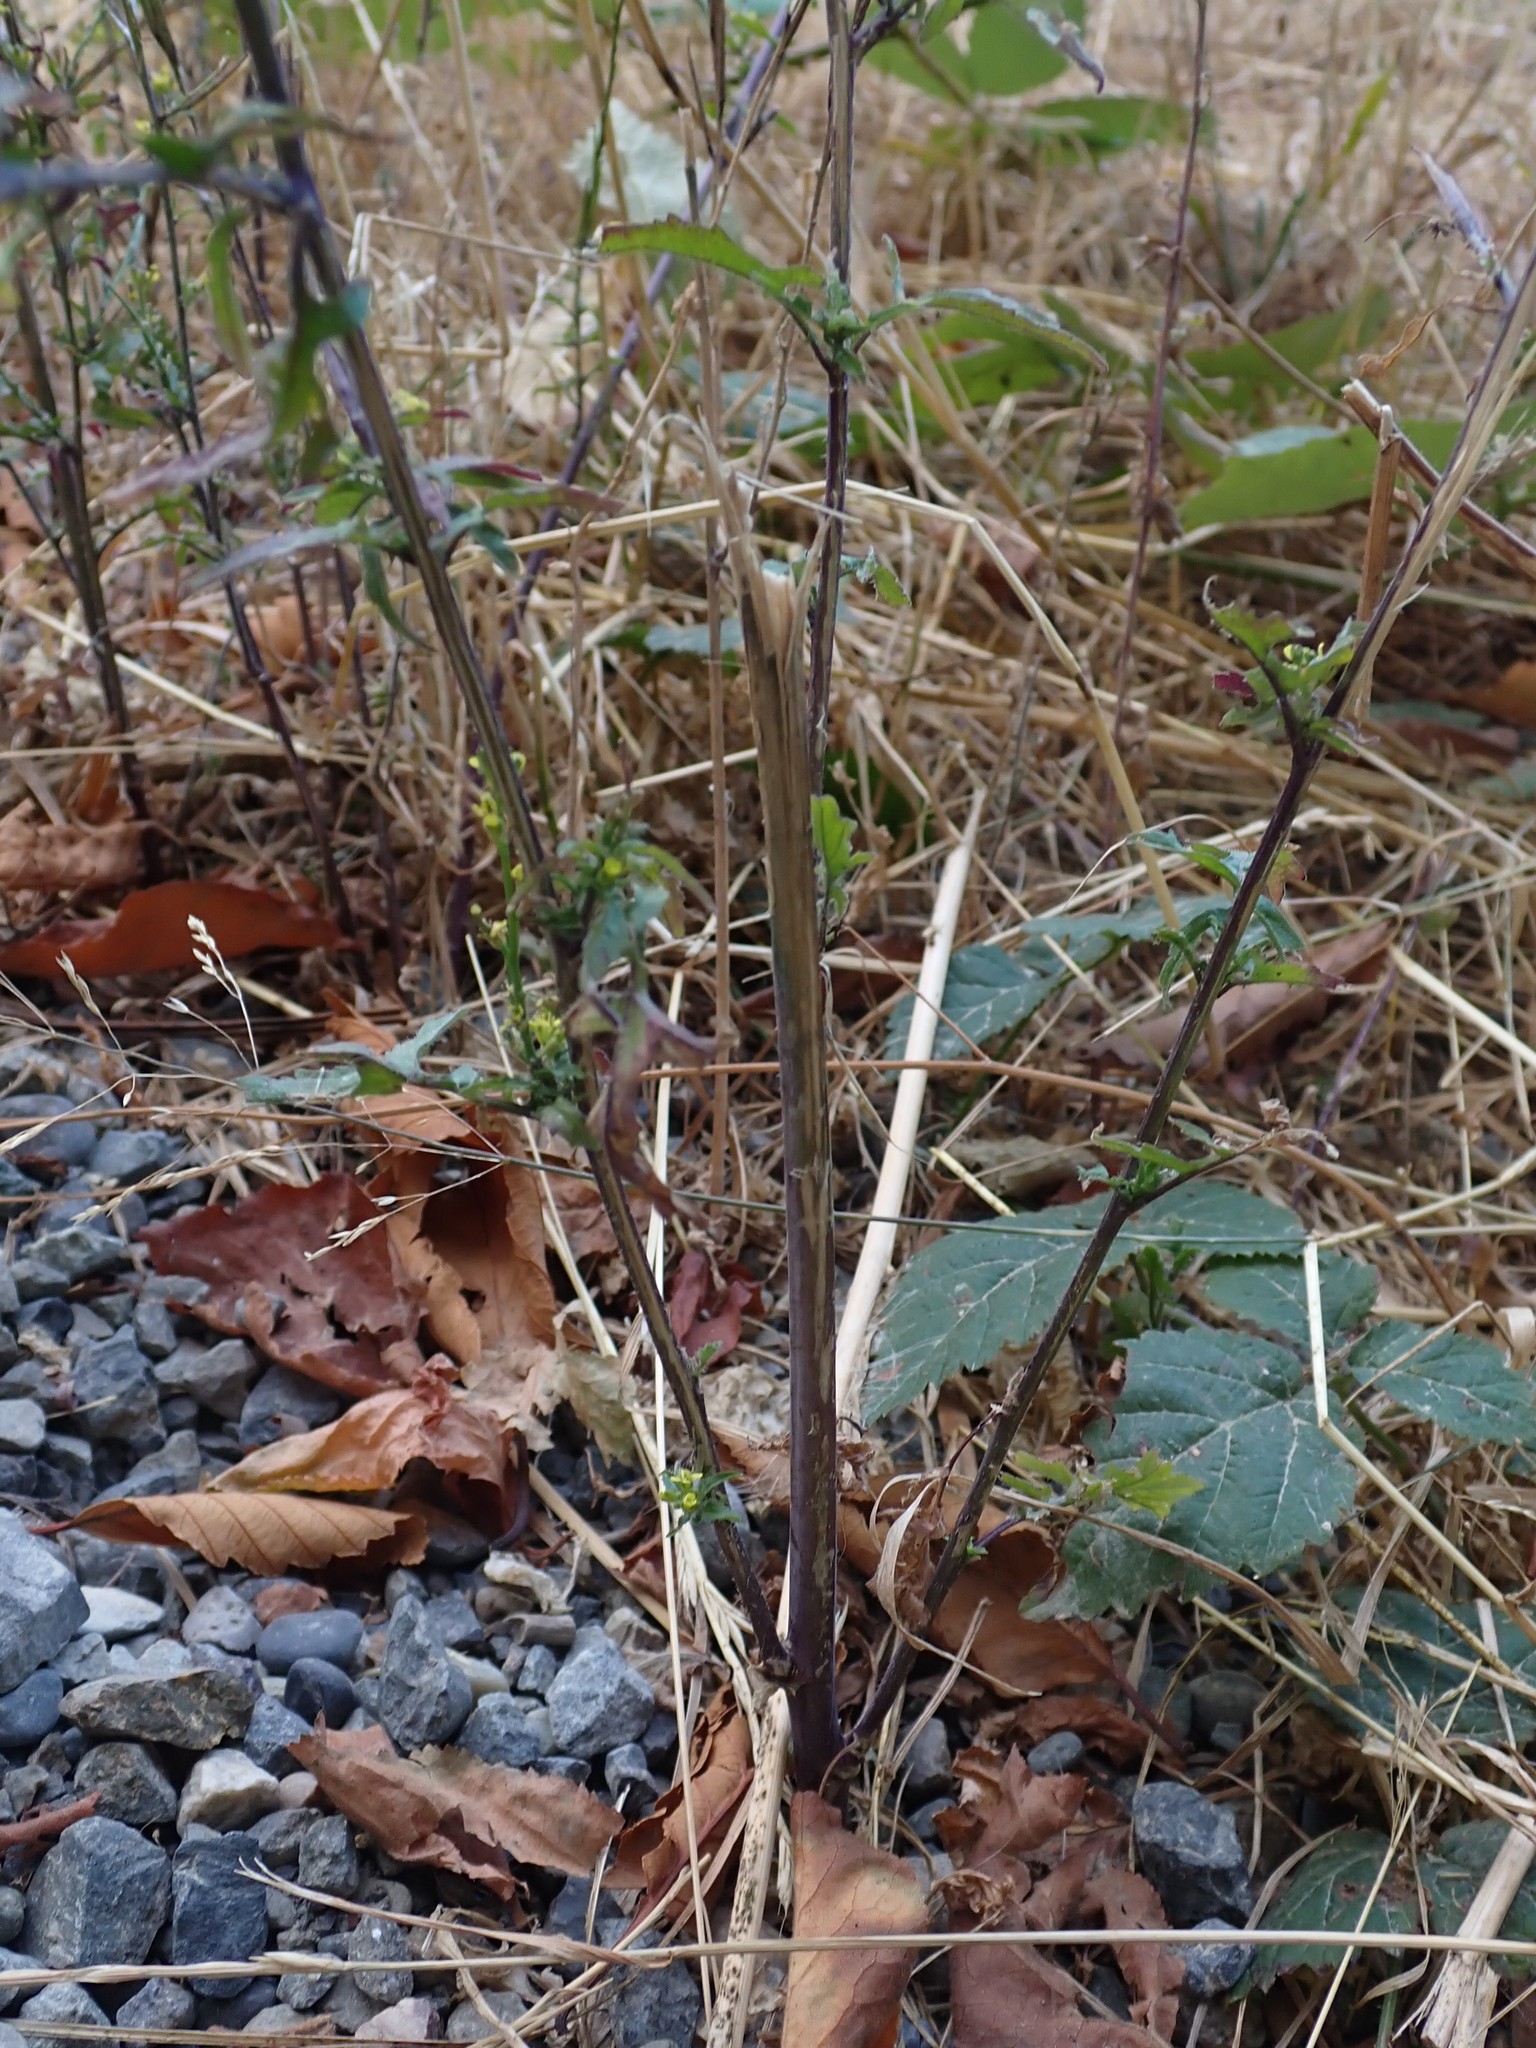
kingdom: Plantae
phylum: Tracheophyta
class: Magnoliopsida
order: Brassicales
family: Brassicaceae
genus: Sisymbrium
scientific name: Sisymbrium officinale
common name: Hedge mustard
